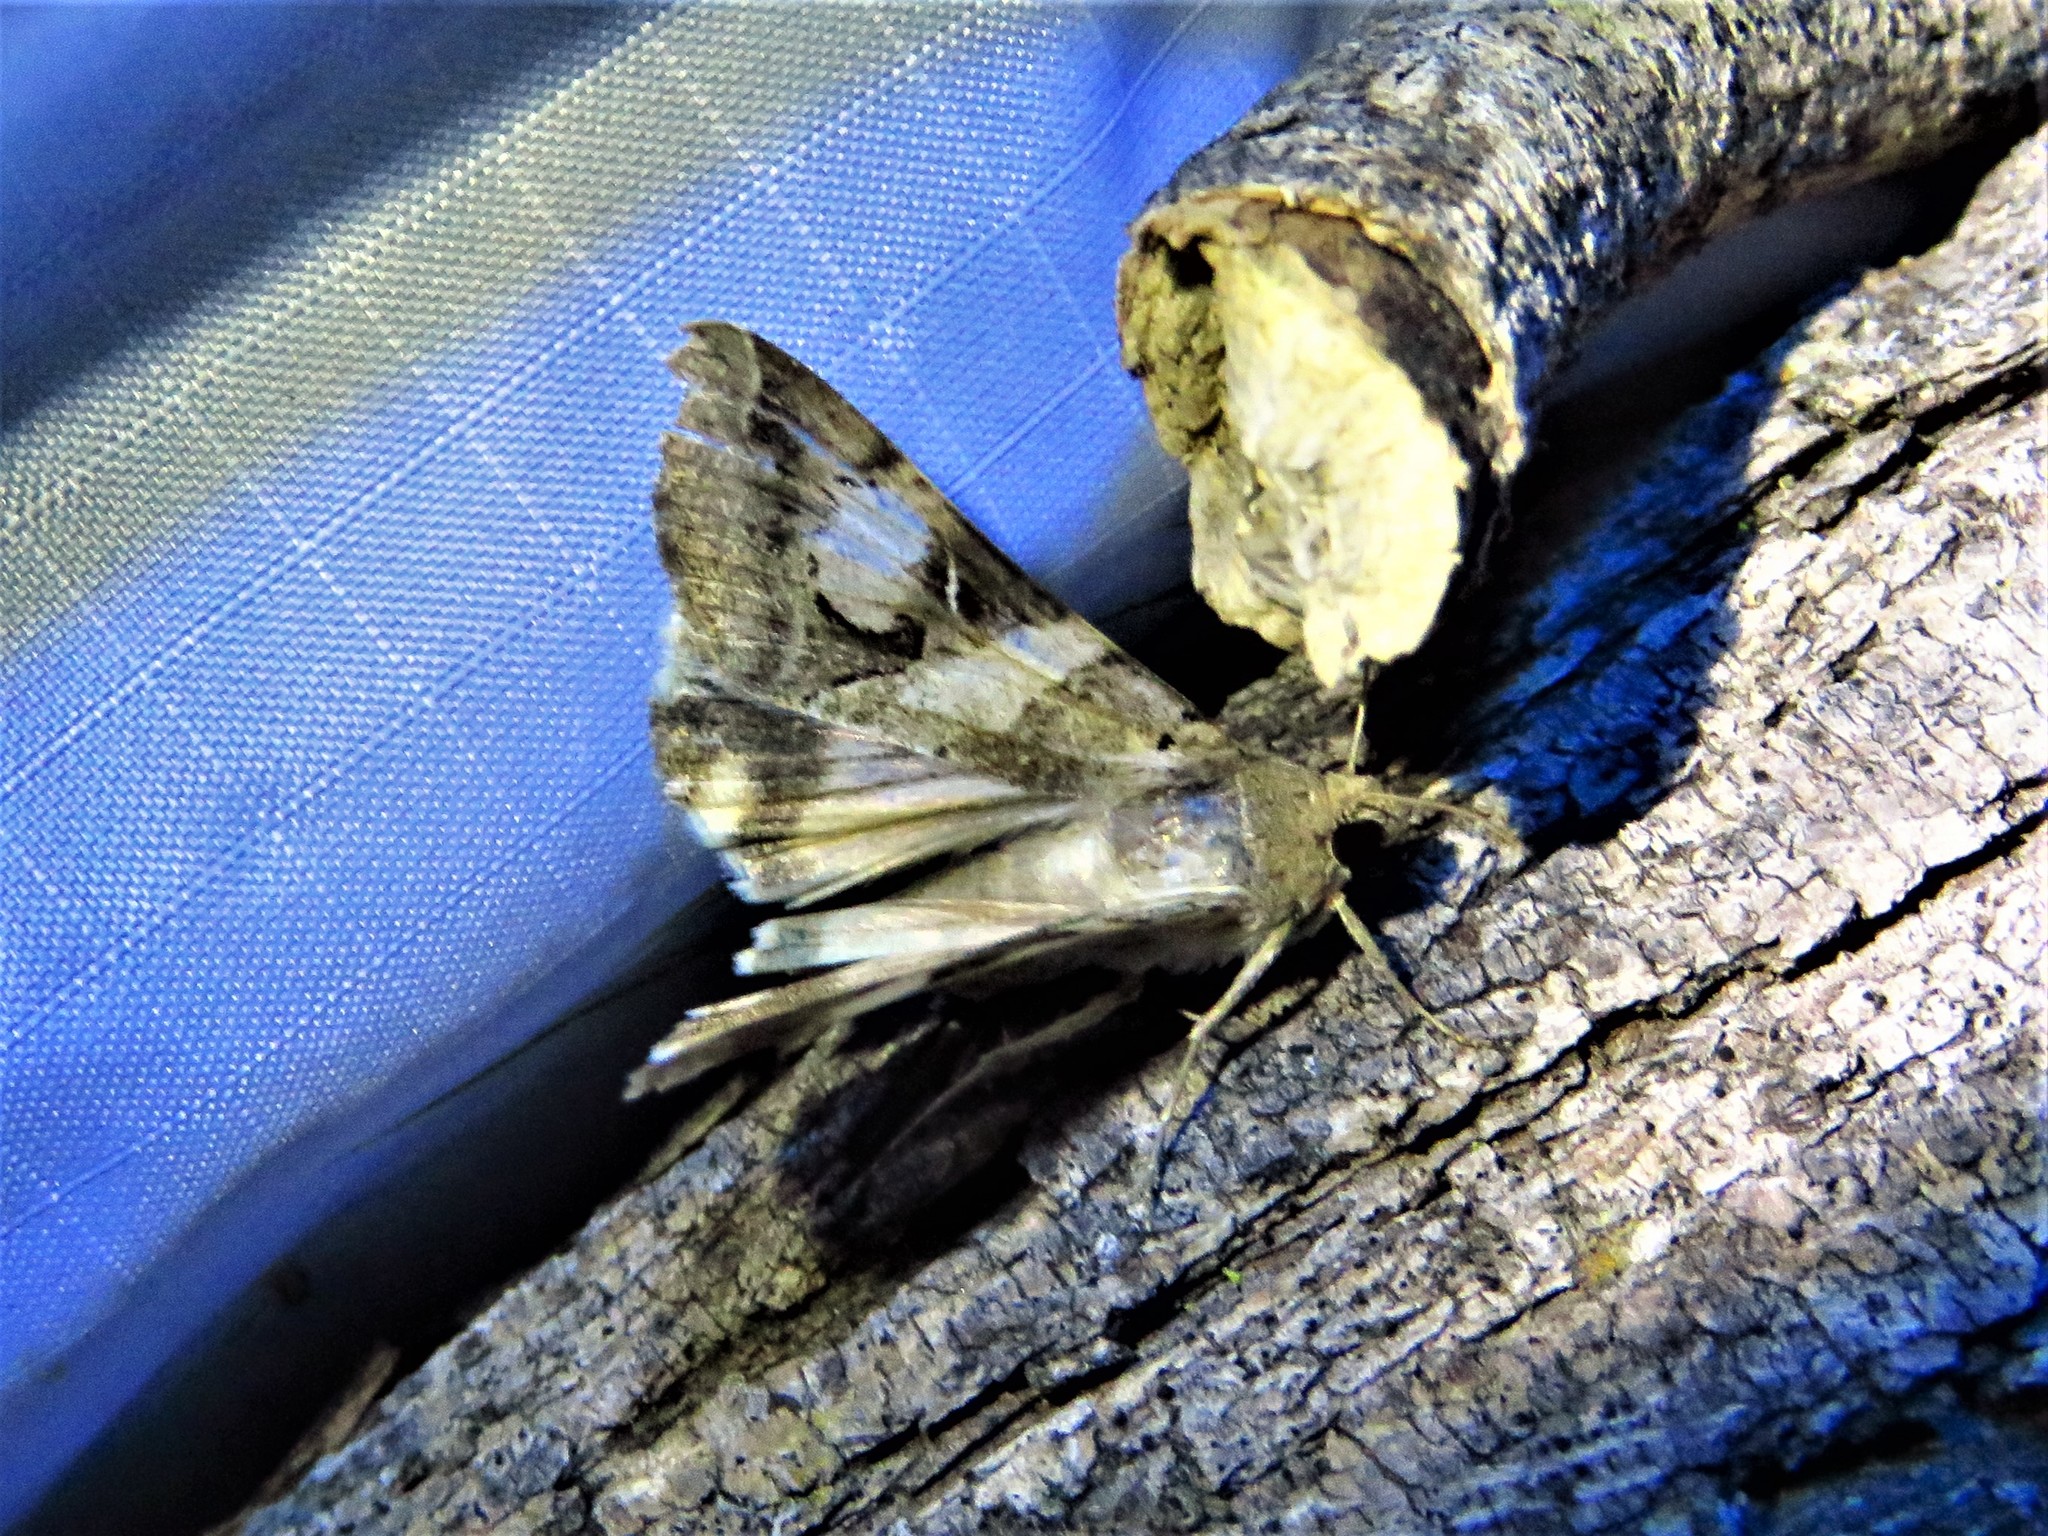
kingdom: Animalia
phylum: Arthropoda
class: Insecta
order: Lepidoptera
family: Erebidae
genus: Melipotis
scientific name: Melipotis indomita
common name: Moth
